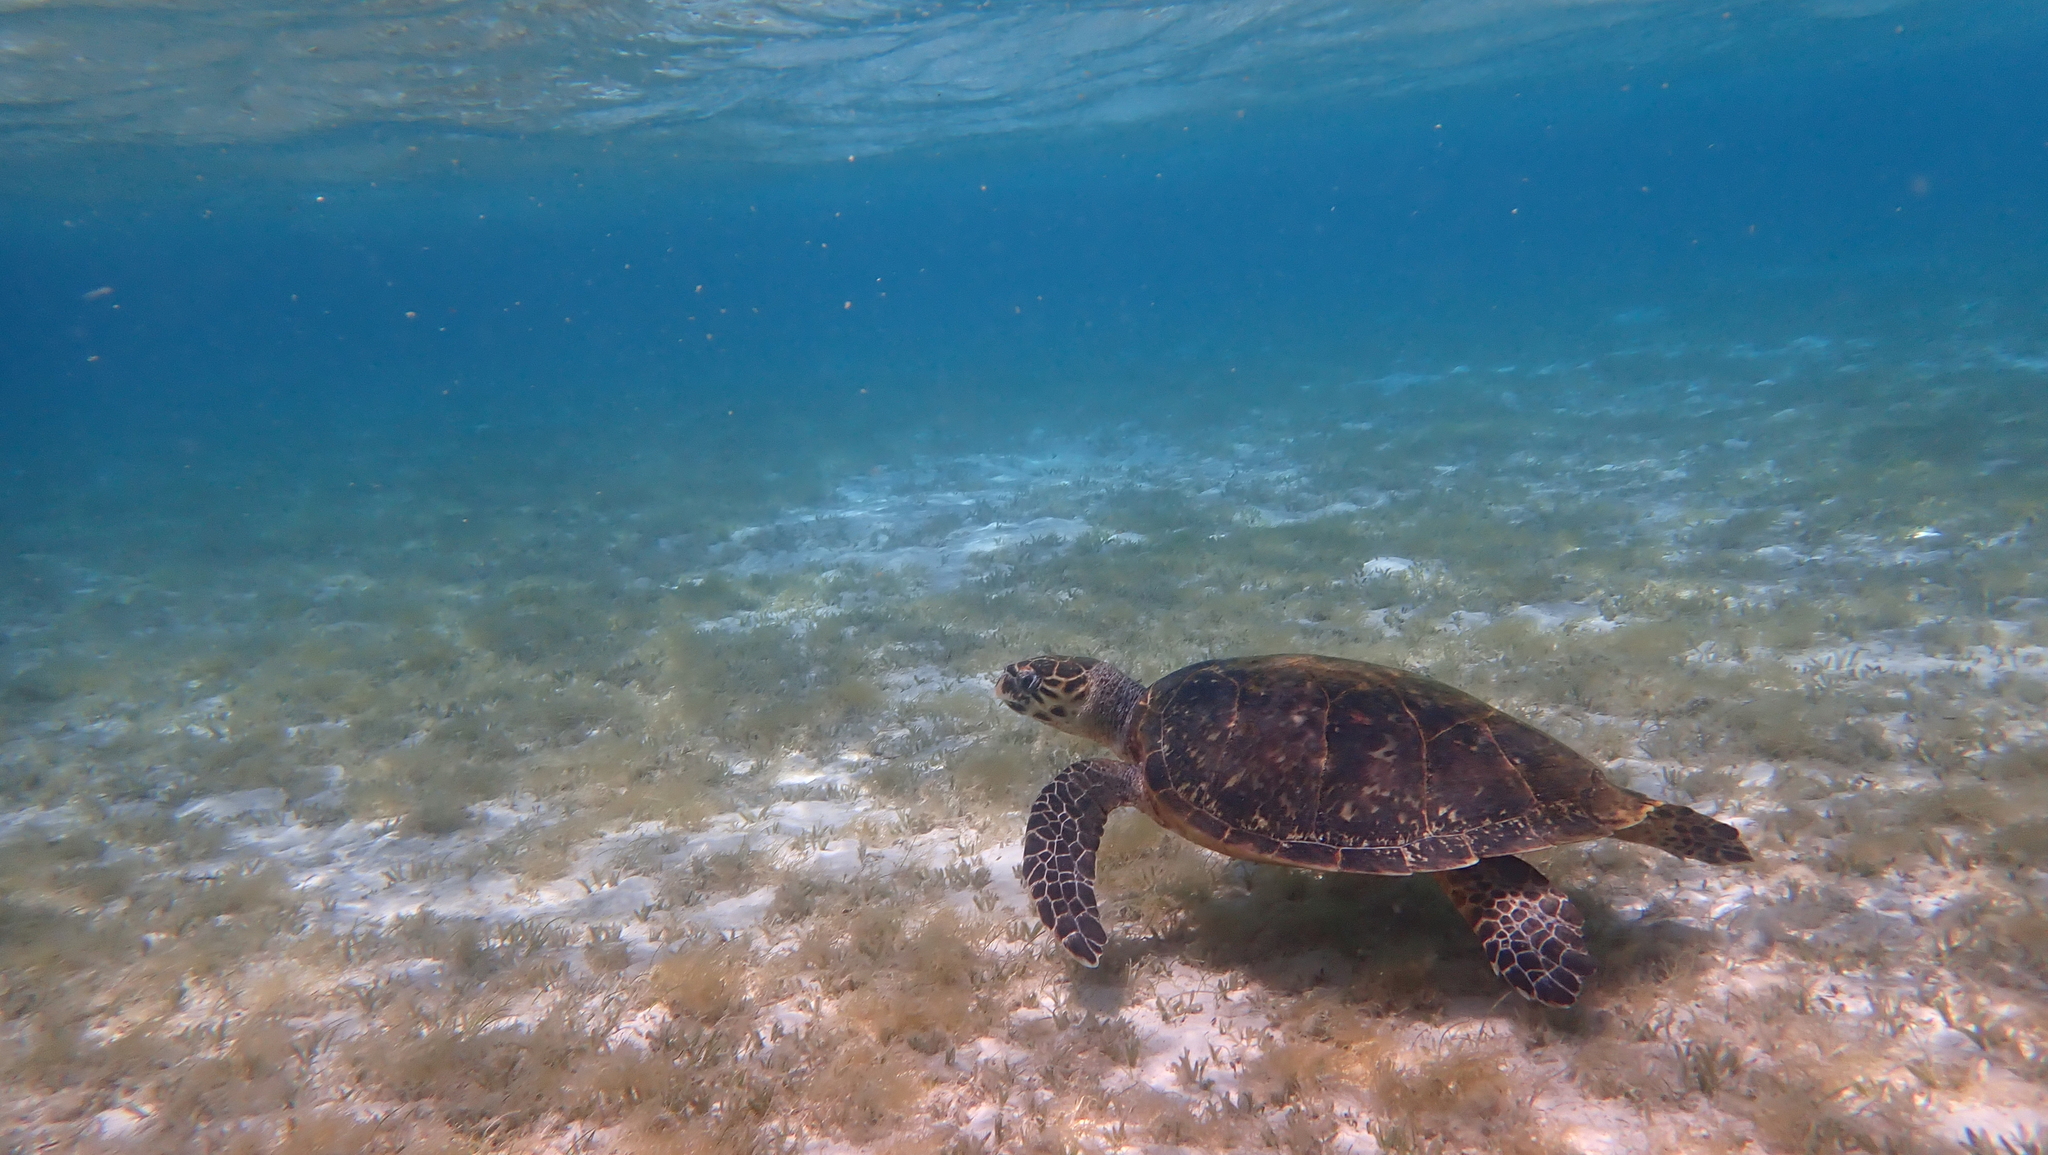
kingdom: Animalia
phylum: Chordata
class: Testudines
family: Cheloniidae
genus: Eretmochelys
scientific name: Eretmochelys imbricata
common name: Hawksbill turtle
